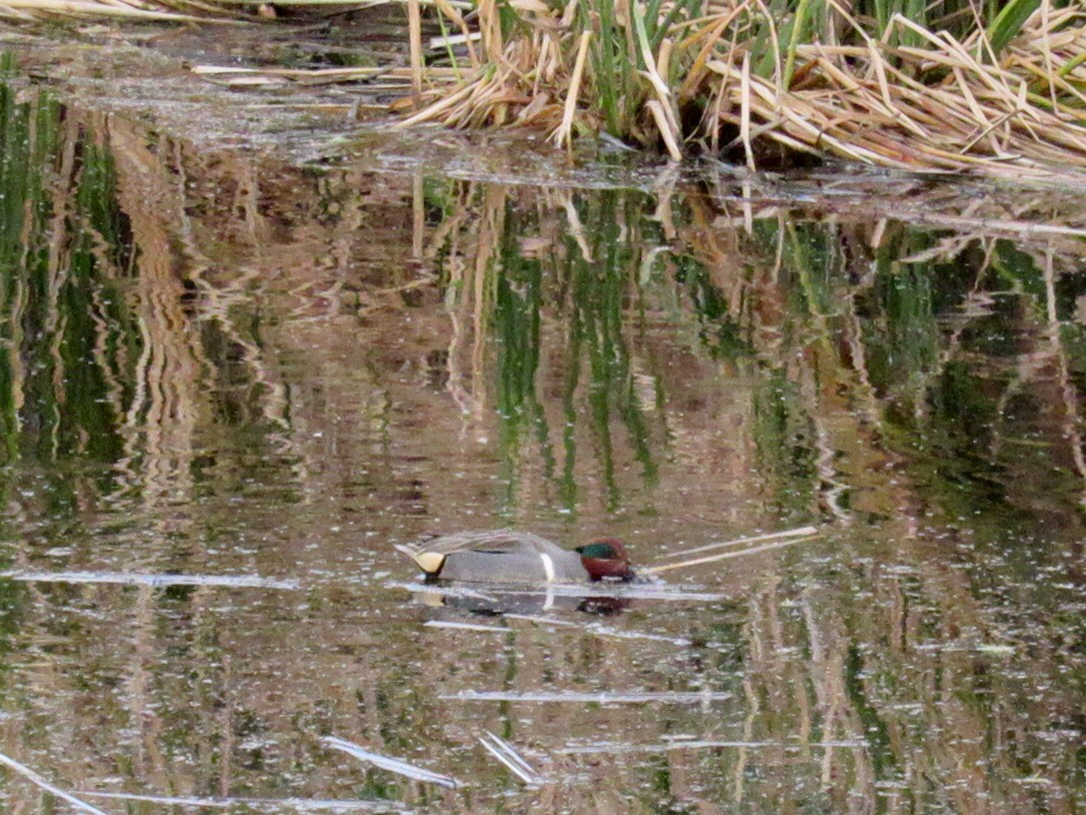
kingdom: Animalia
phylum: Chordata
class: Aves
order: Anseriformes
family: Anatidae
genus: Anas
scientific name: Anas carolinensis
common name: Green-winged teal
